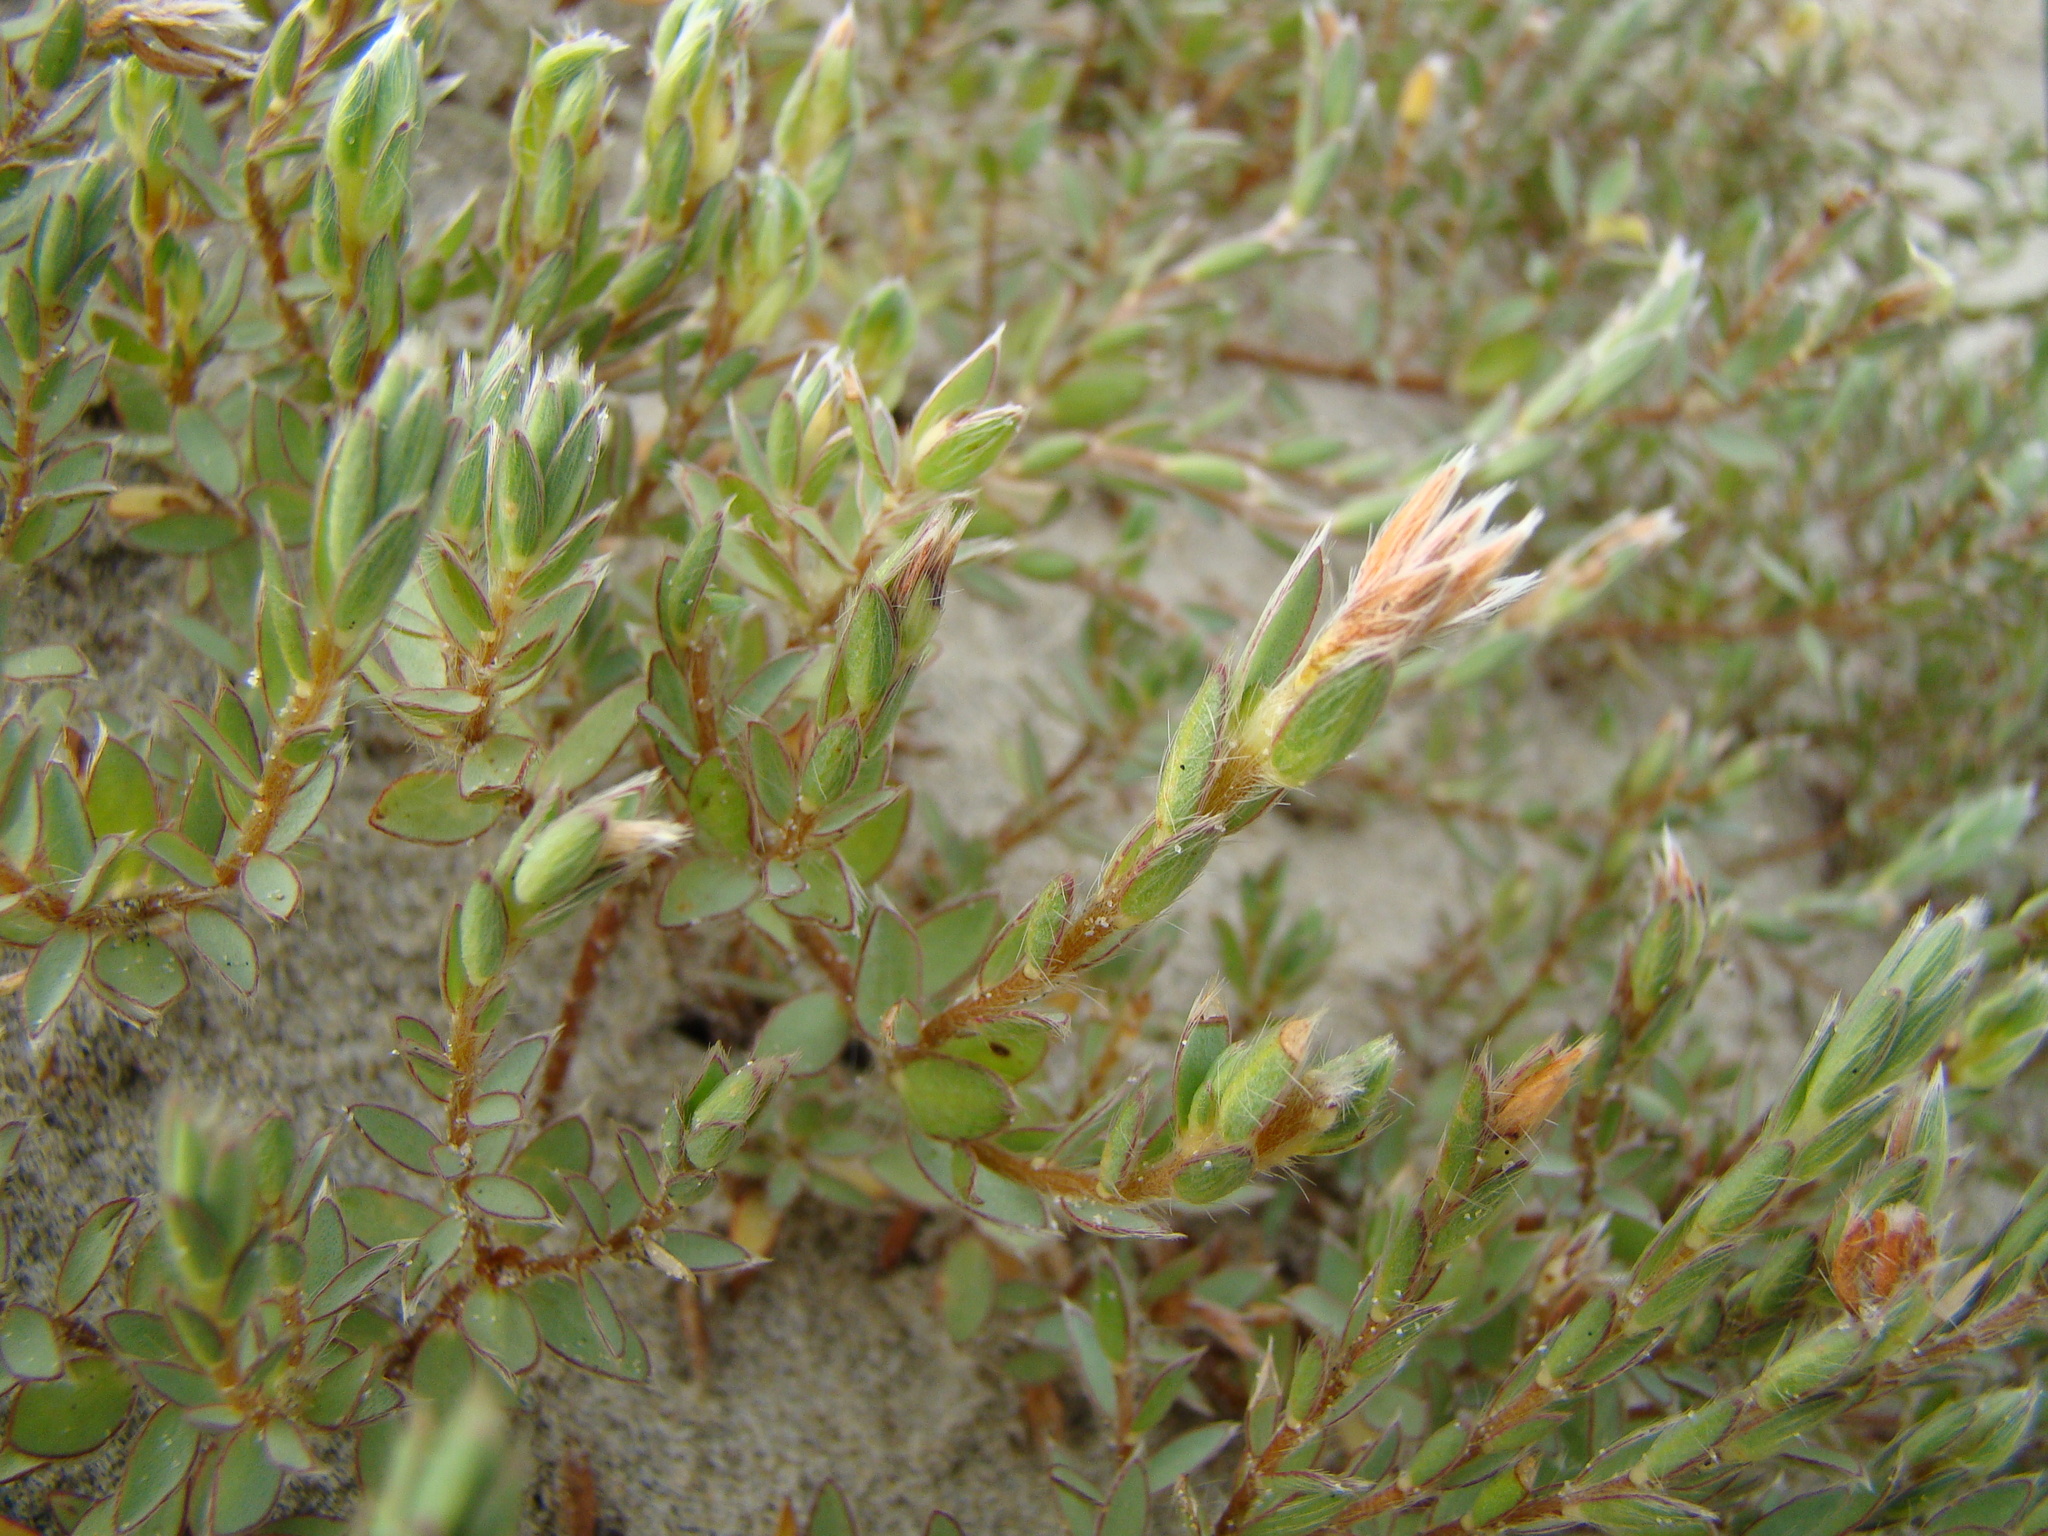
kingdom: Plantae
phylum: Tracheophyta
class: Magnoliopsida
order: Malvales
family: Thymelaeaceae
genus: Pimelea
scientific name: Pimelea lyallii
